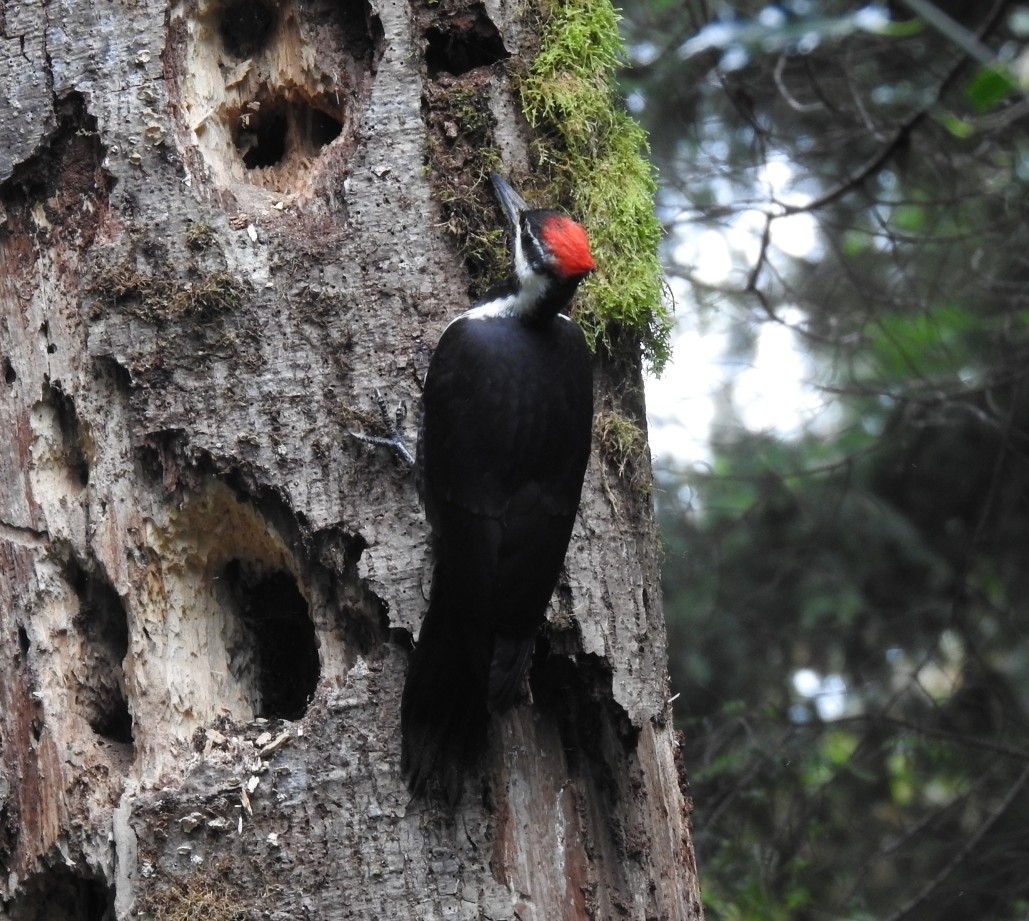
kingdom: Animalia
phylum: Chordata
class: Aves
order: Piciformes
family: Picidae
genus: Dryocopus
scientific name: Dryocopus pileatus
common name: Pileated woodpecker
